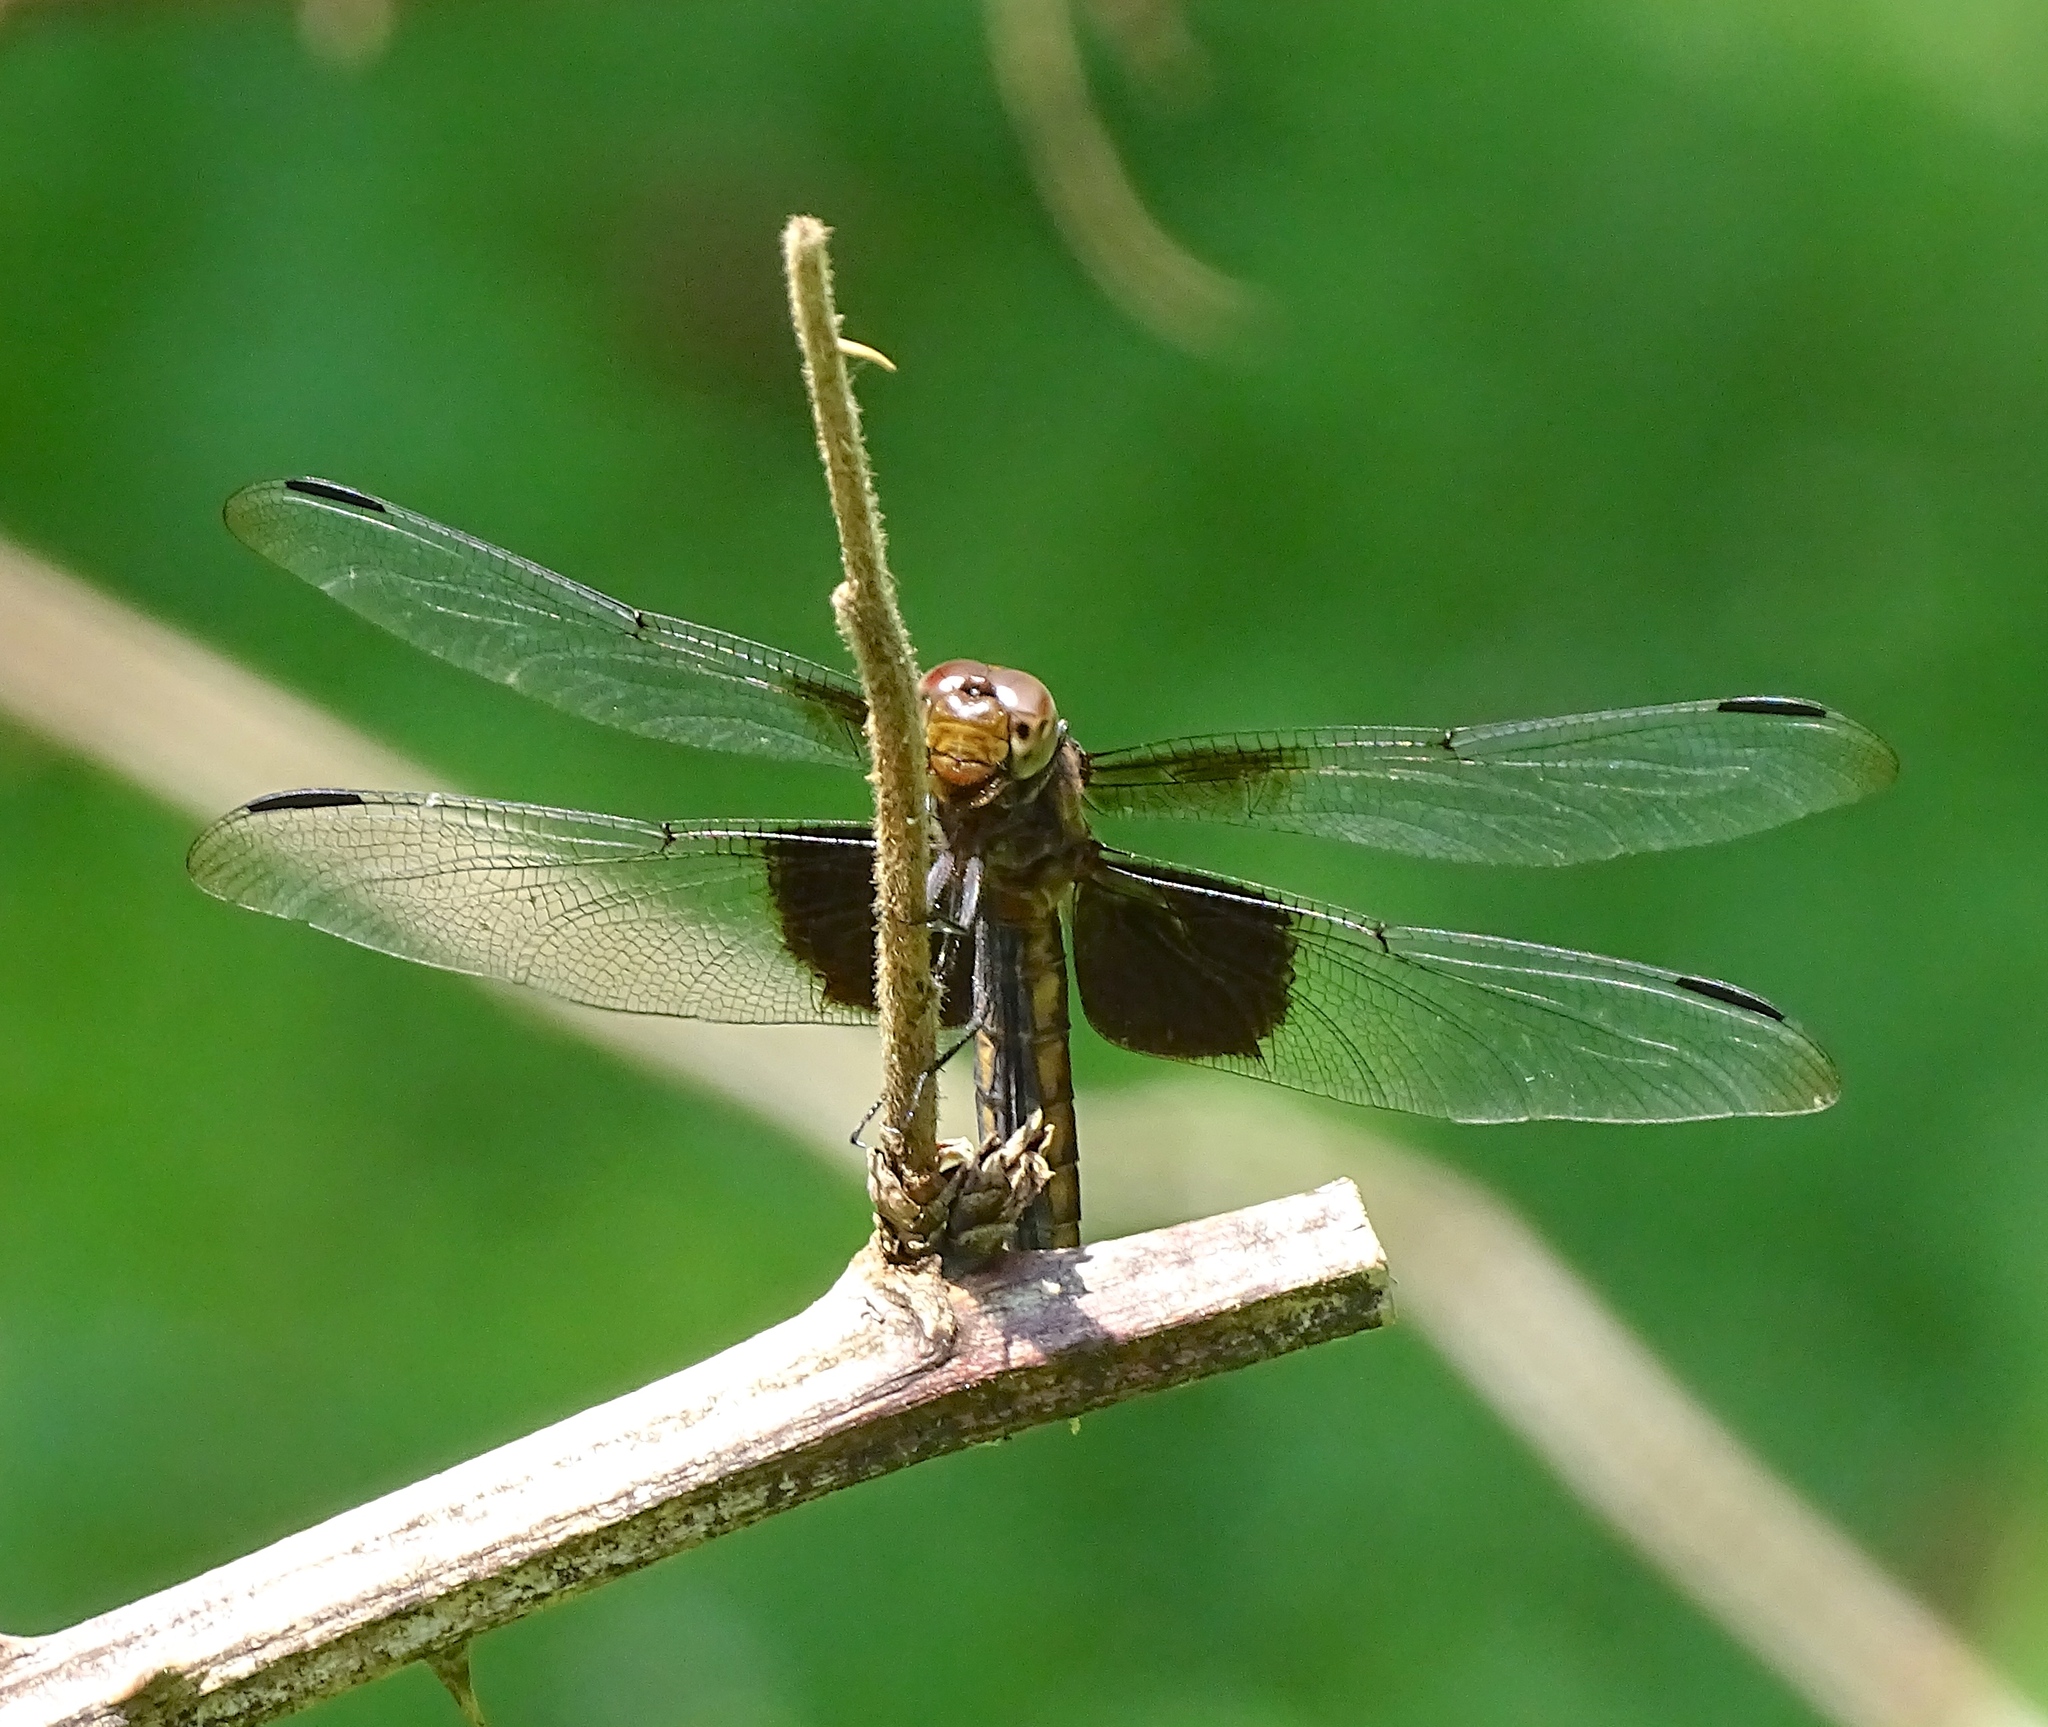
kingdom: Animalia
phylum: Arthropoda
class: Insecta
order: Odonata
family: Libellulidae
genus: Libellula
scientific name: Libellula luctuosa
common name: Widow skimmer
